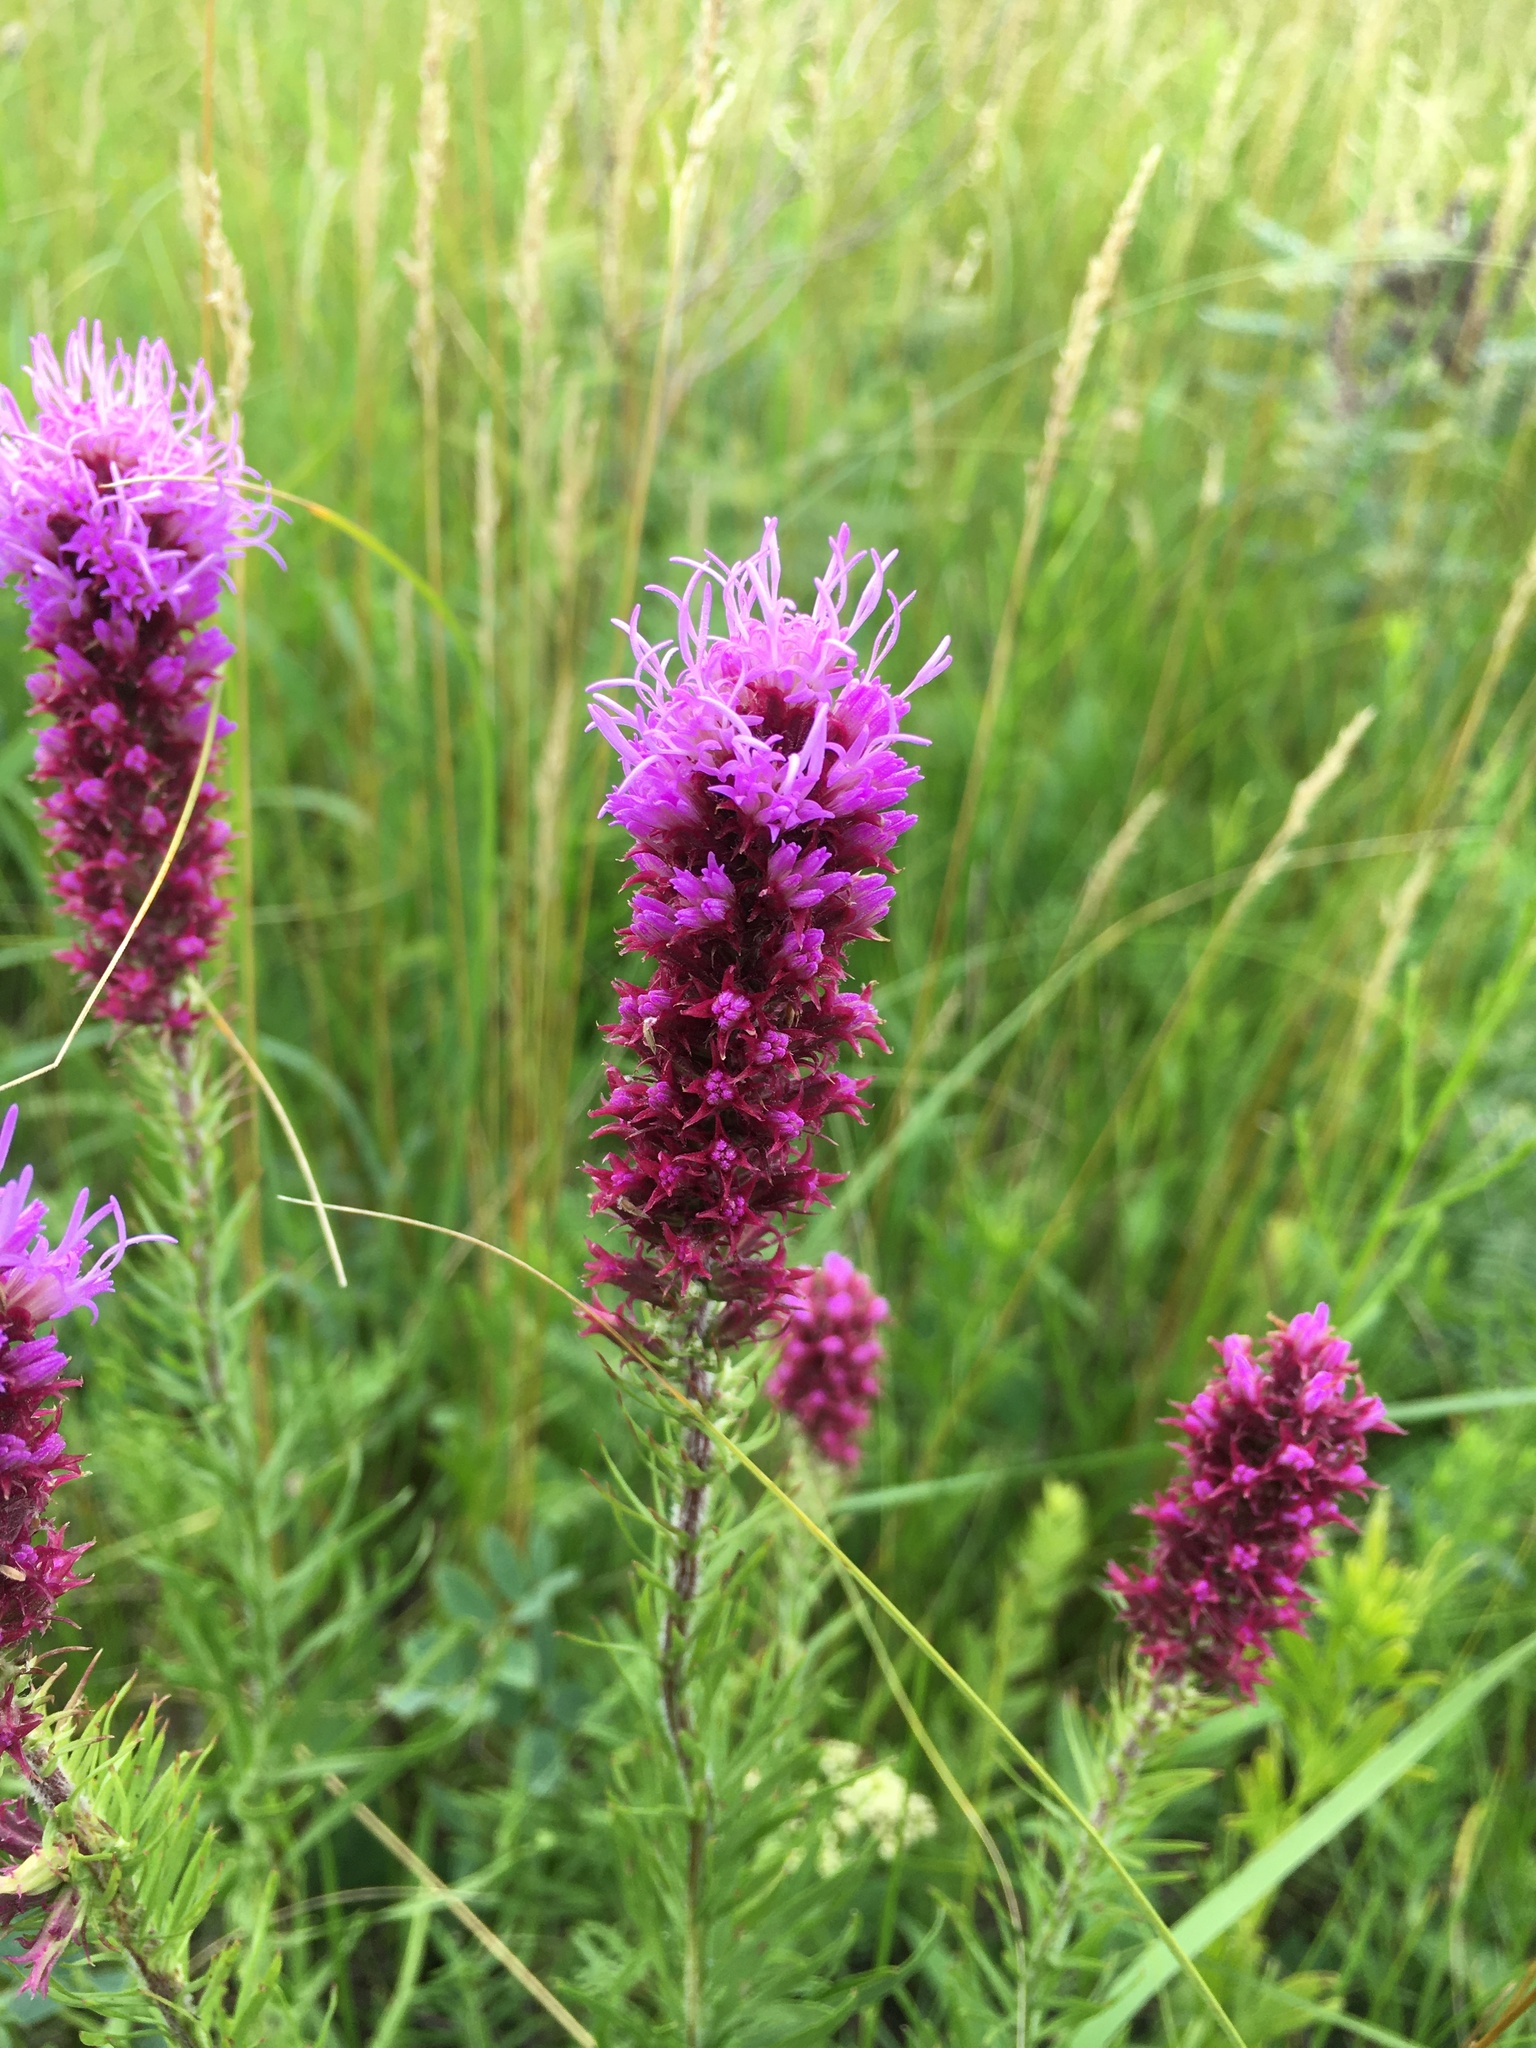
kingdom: Plantae
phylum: Tracheophyta
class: Magnoliopsida
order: Asterales
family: Asteraceae
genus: Liatris
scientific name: Liatris pycnostachya
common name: Cattail gayfeather
